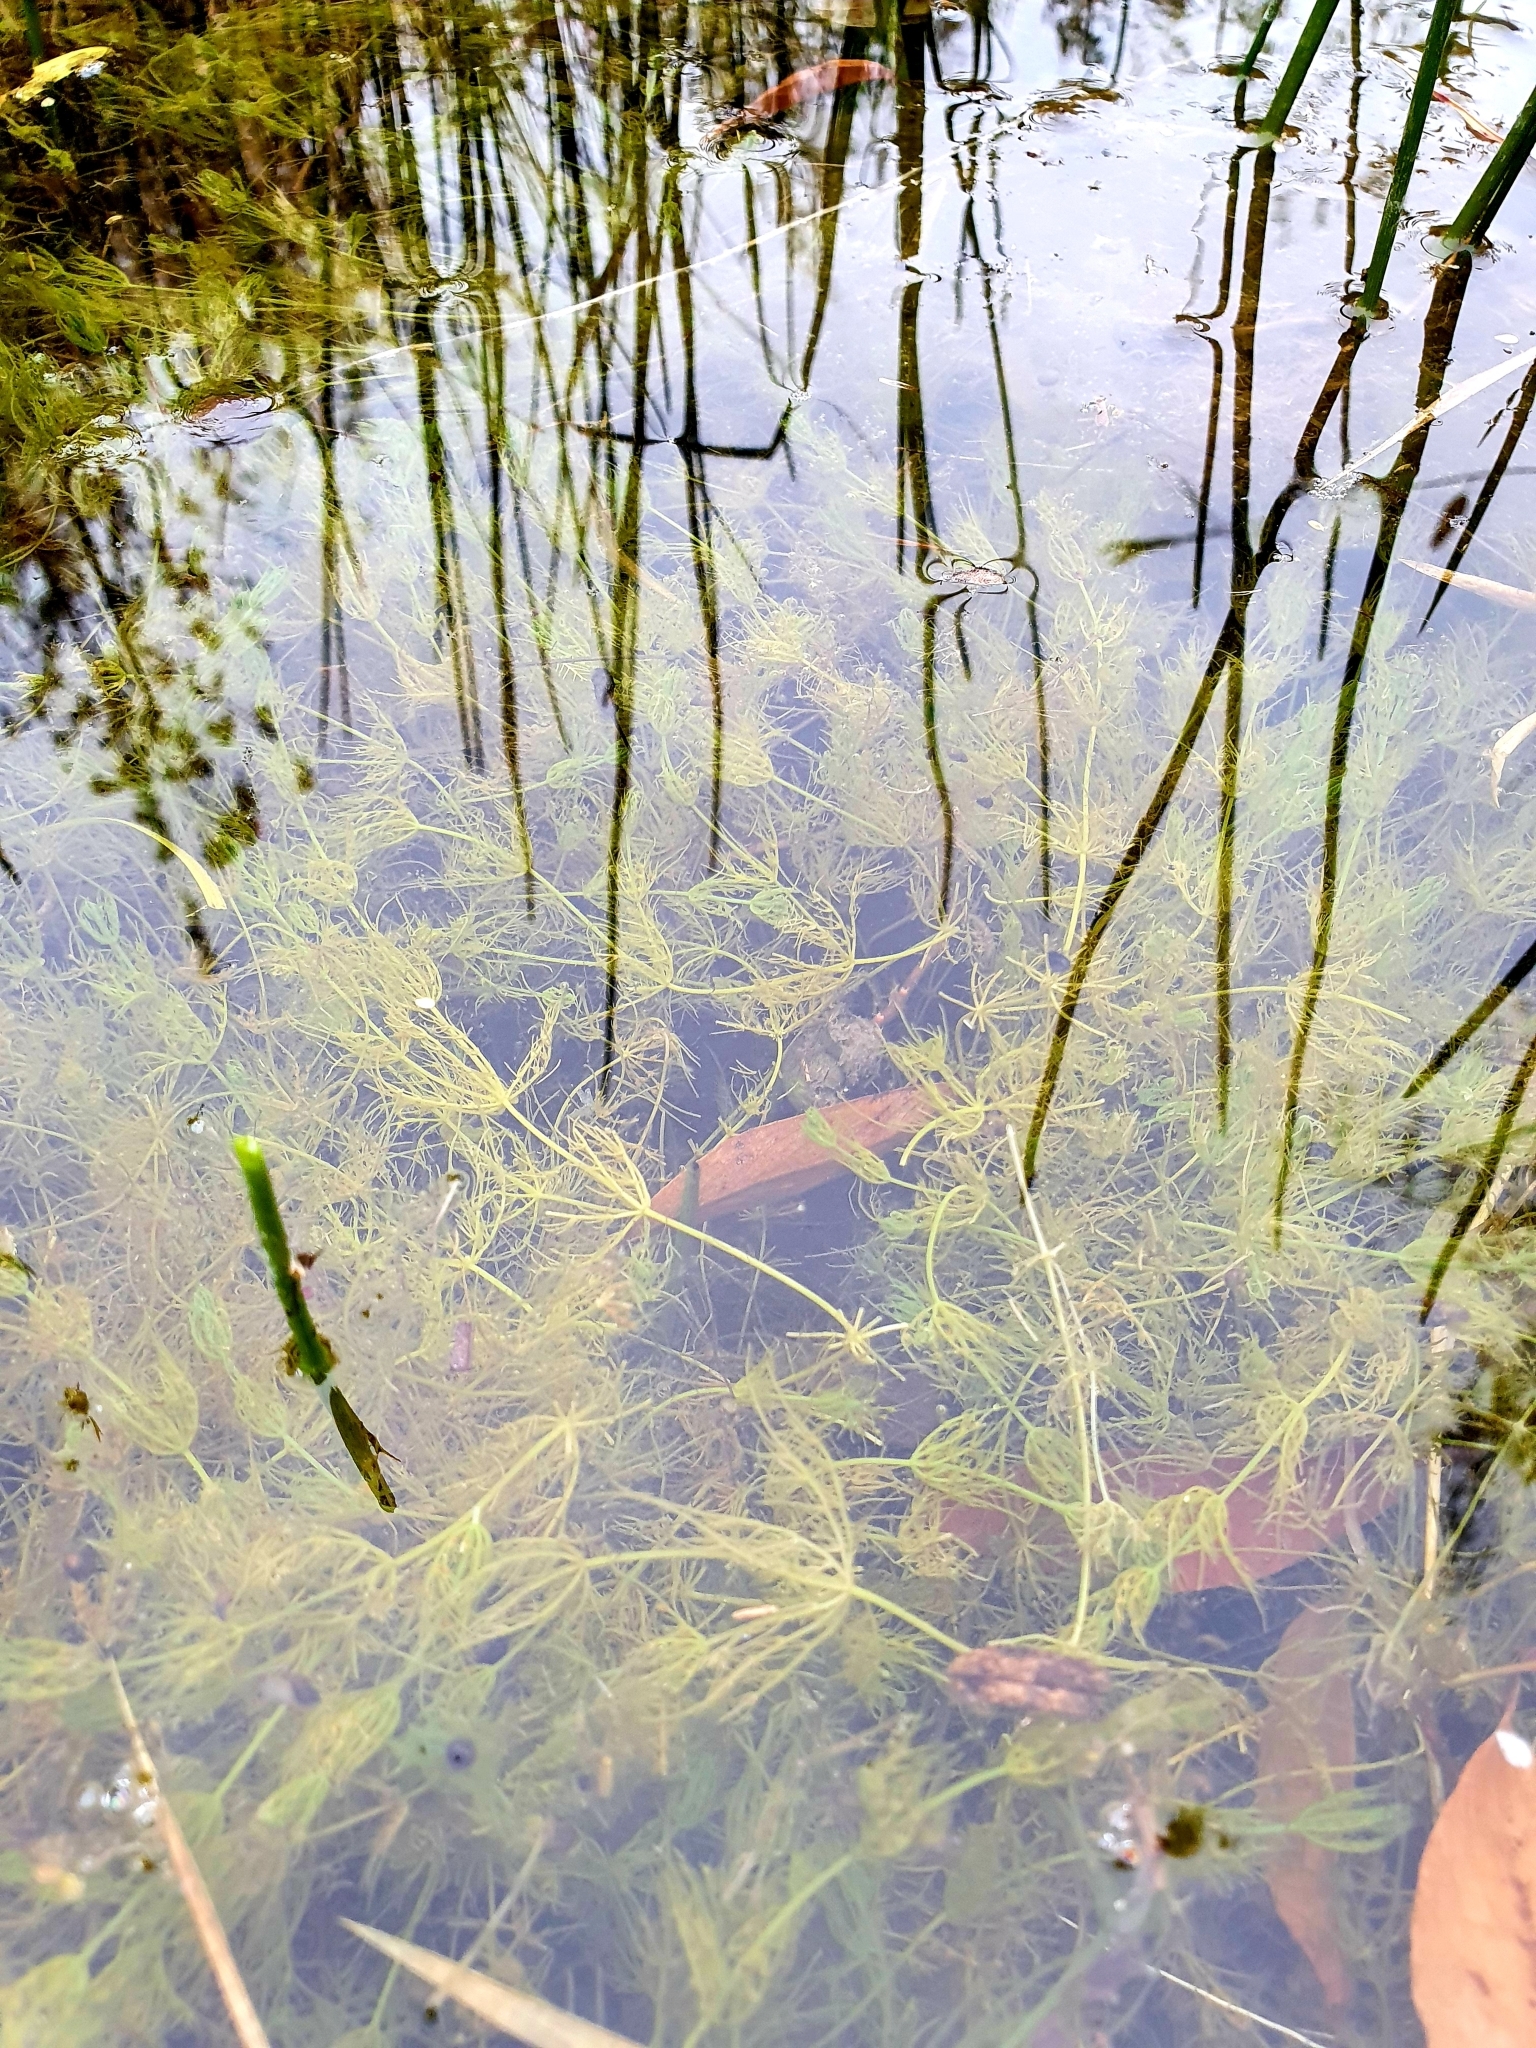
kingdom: Plantae
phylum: Charophyta
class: Charophyceae
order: Charales
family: Characeae
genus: Chara
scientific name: Chara vulgaris
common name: Common stonewort
